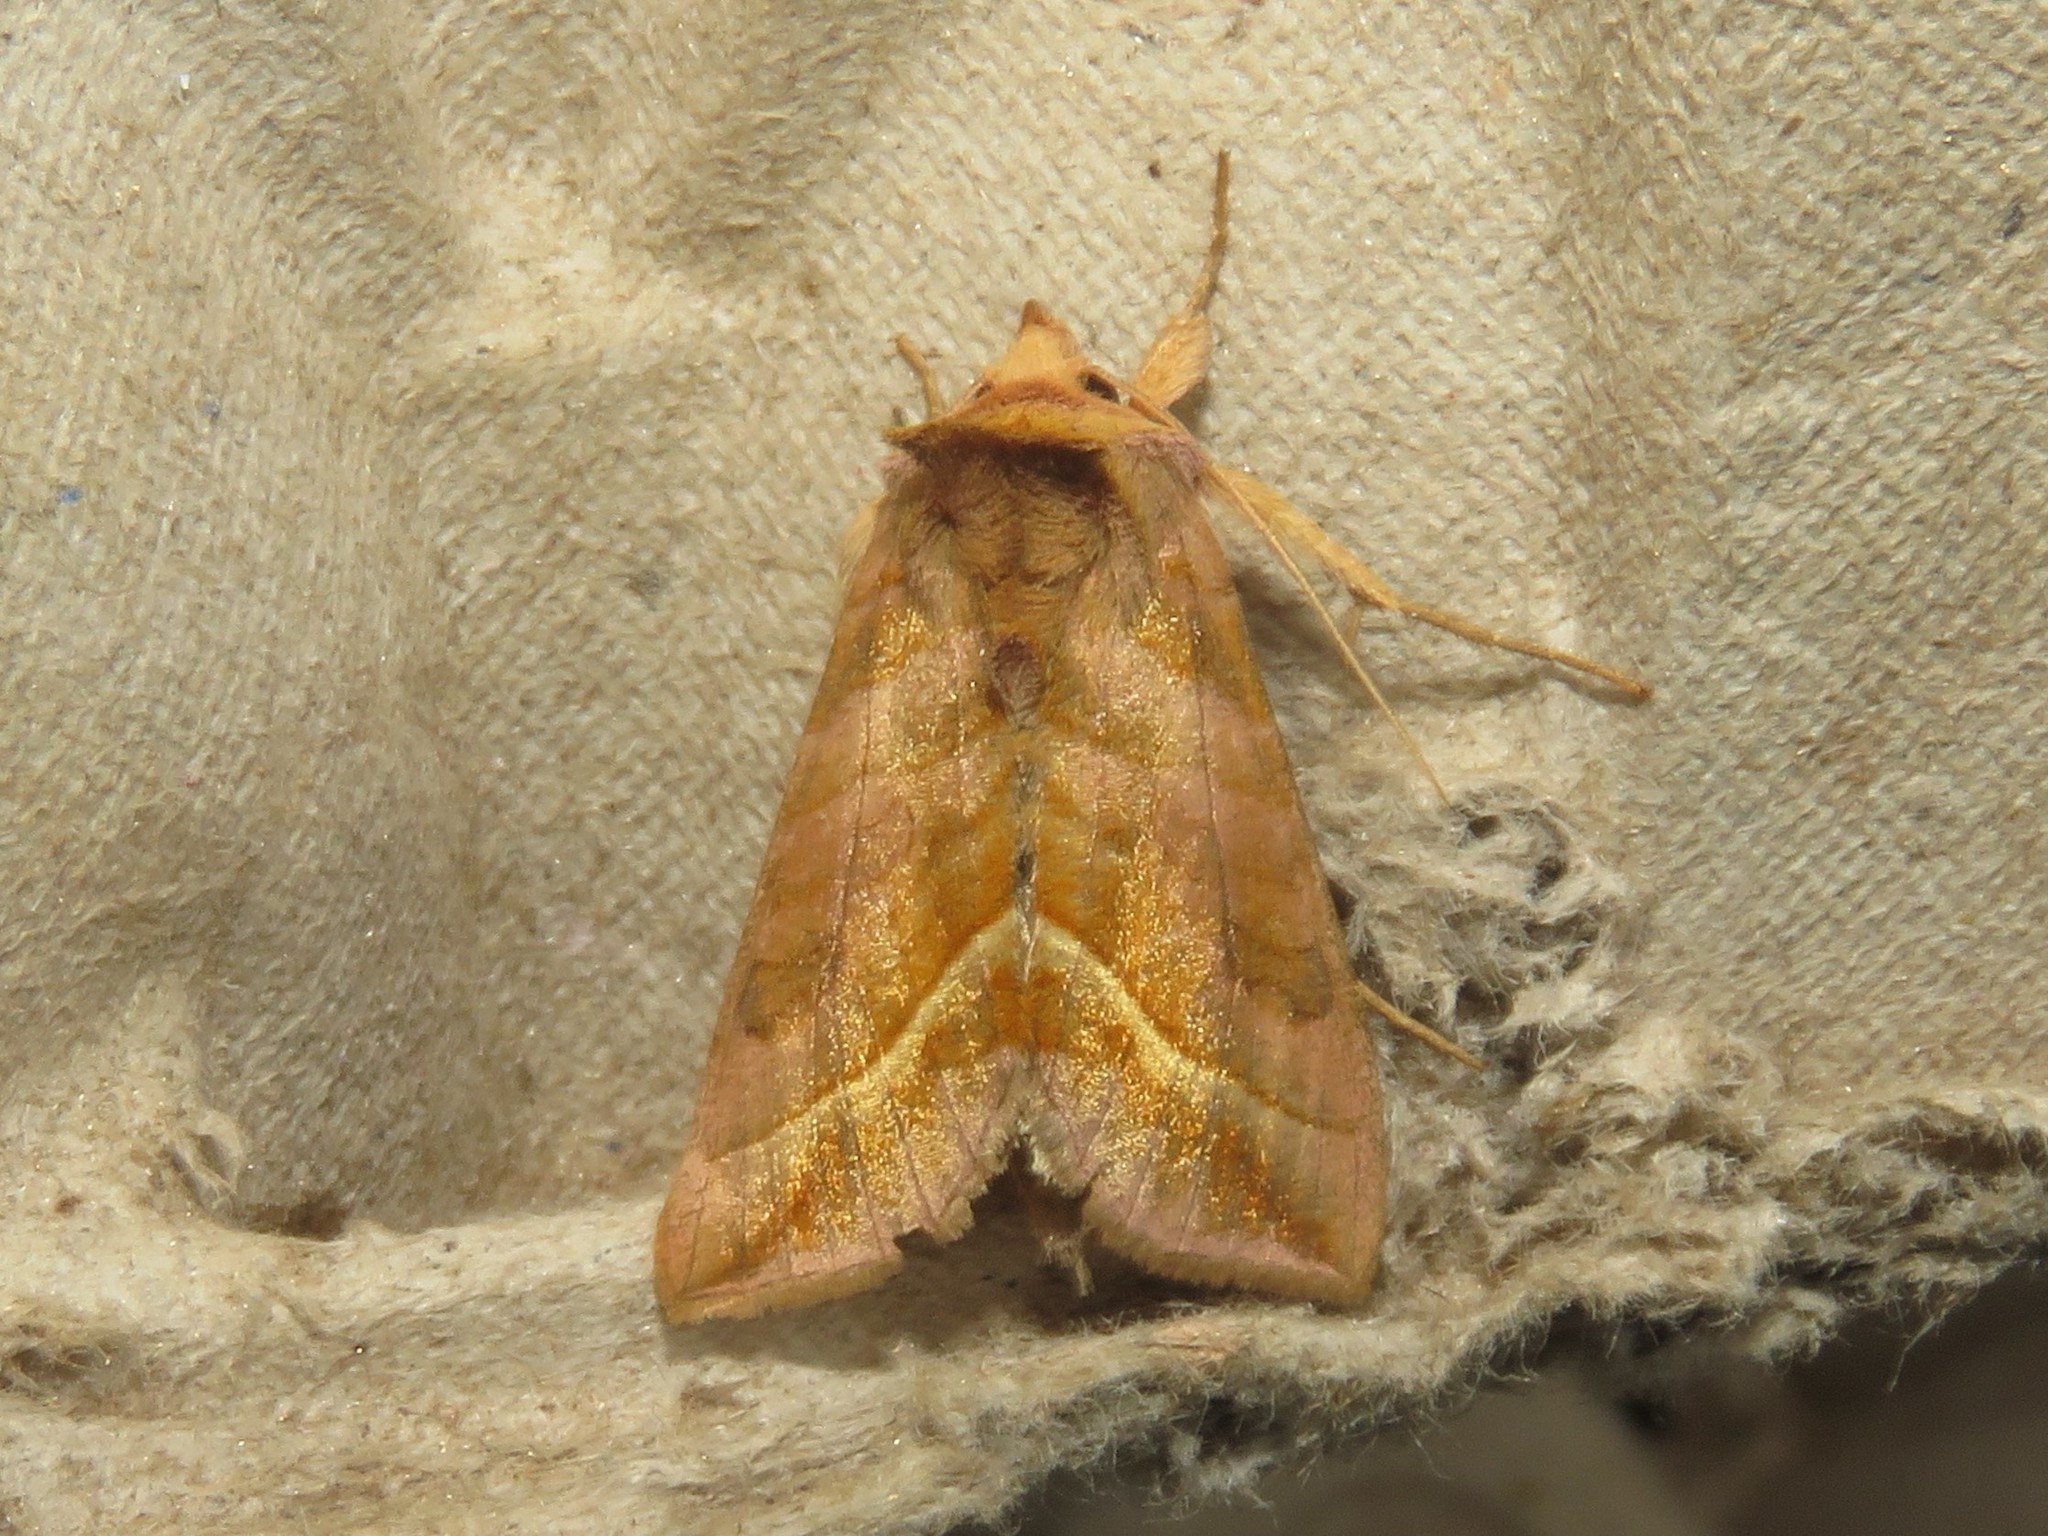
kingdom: Animalia
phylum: Arthropoda
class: Insecta
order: Lepidoptera
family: Noctuidae
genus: Diachrysia
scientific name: Diachrysia aereoides
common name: Dark-spotted looper moth
